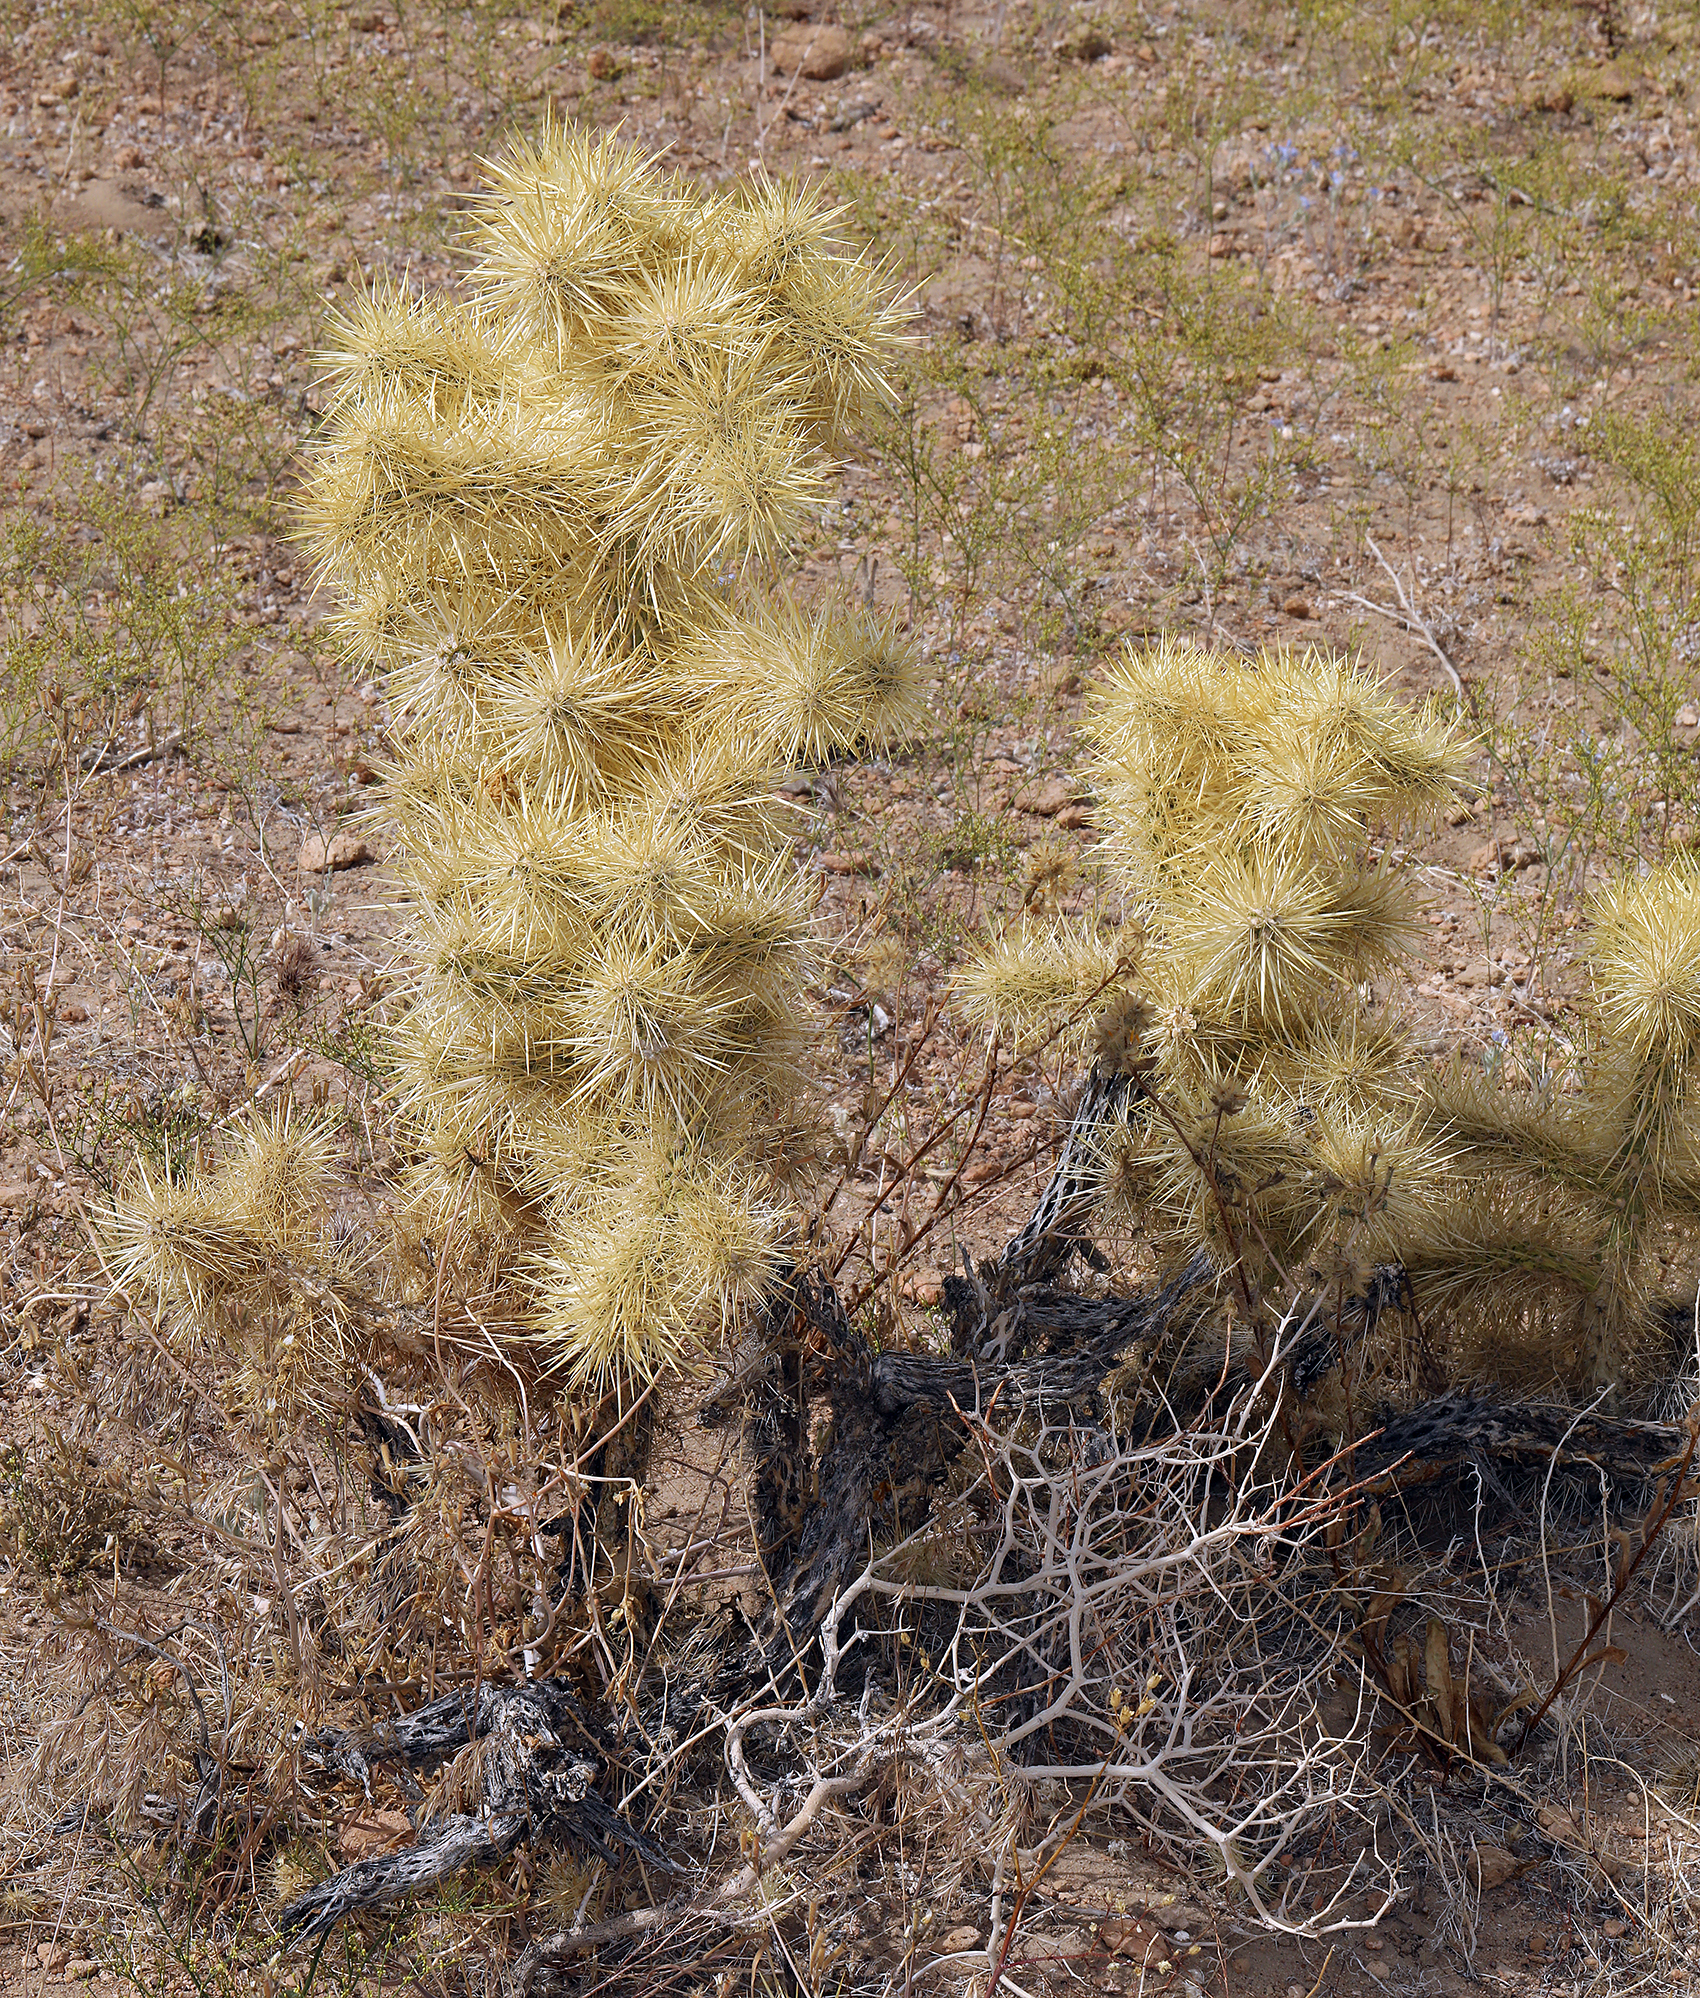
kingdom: Plantae
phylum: Tracheophyta
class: Magnoliopsida
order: Caryophyllales
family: Cactaceae
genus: Cylindropuntia
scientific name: Cylindropuntia echinocarpa
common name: Ground cholla
